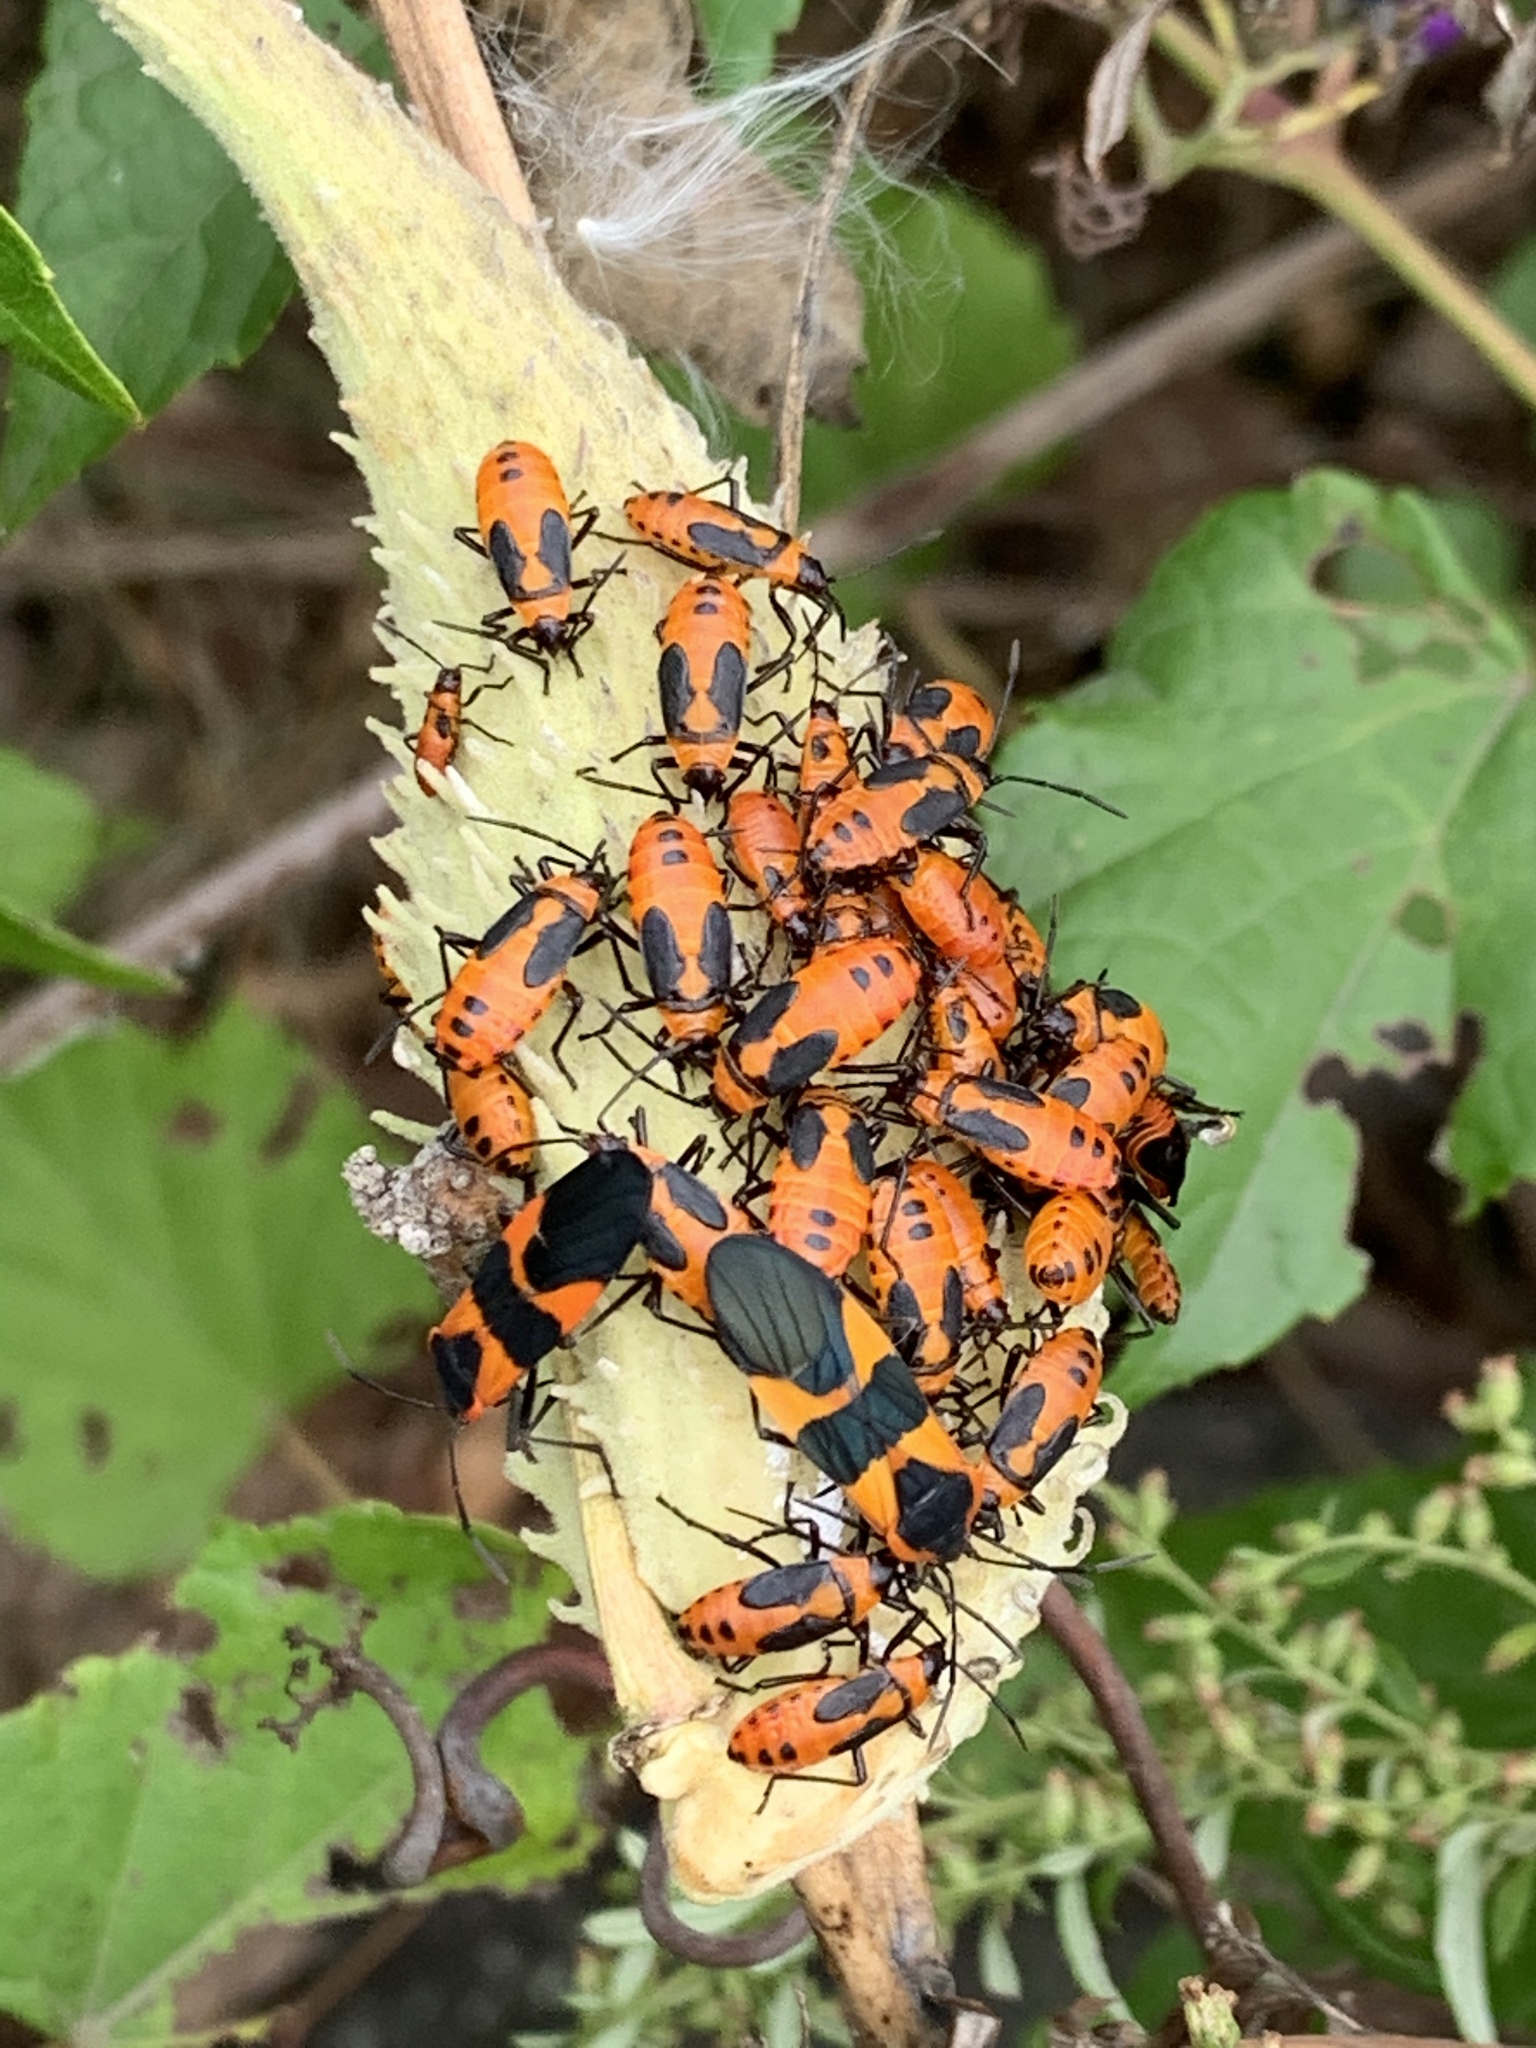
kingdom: Animalia
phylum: Arthropoda
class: Insecta
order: Hemiptera
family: Lygaeidae
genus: Oncopeltus
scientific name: Oncopeltus fasciatus
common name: Large milkweed bug
